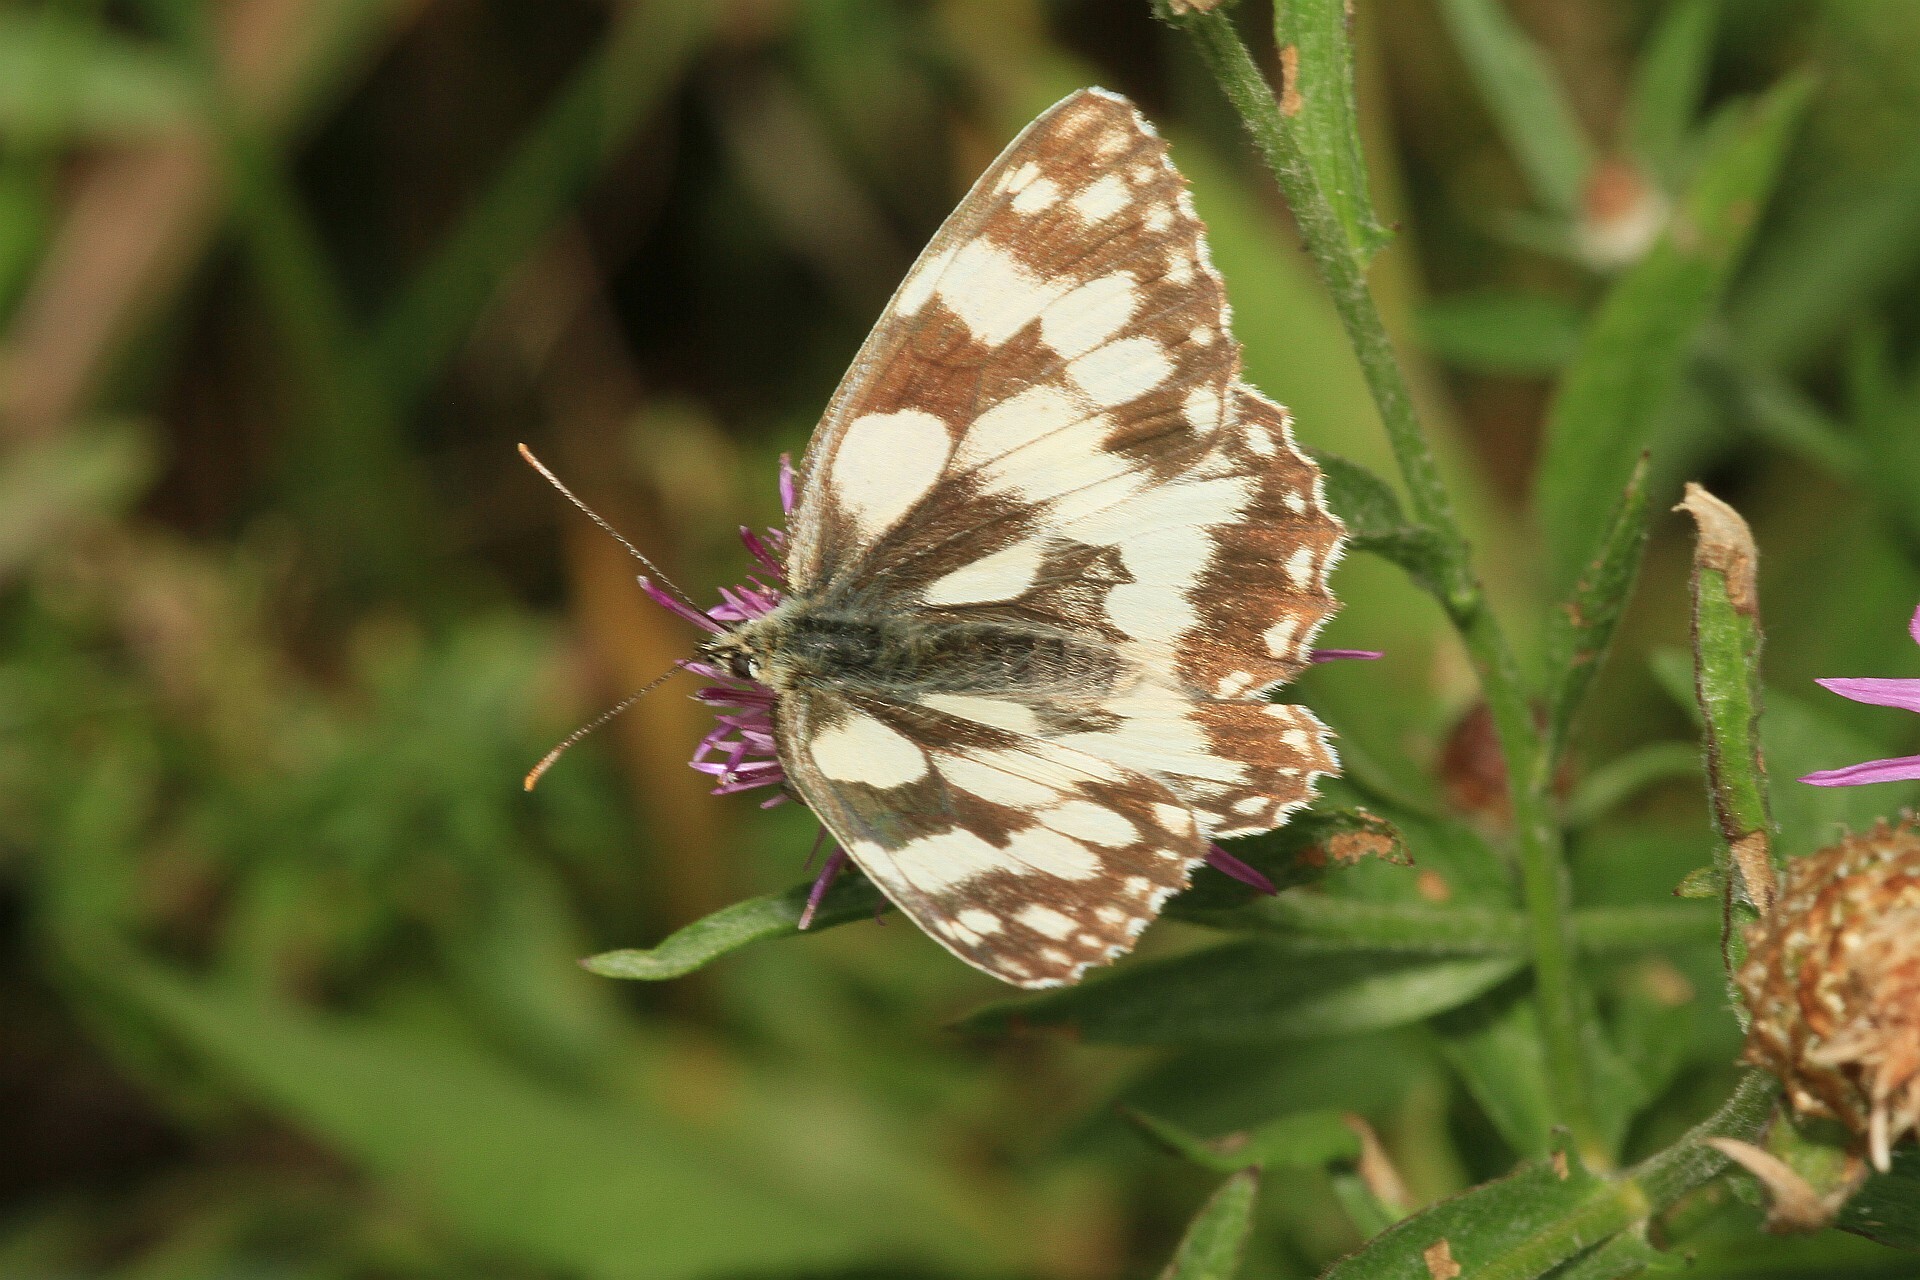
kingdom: Animalia
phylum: Arthropoda
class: Insecta
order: Lepidoptera
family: Nymphalidae
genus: Melanargia
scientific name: Melanargia galathea
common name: Marbled white
